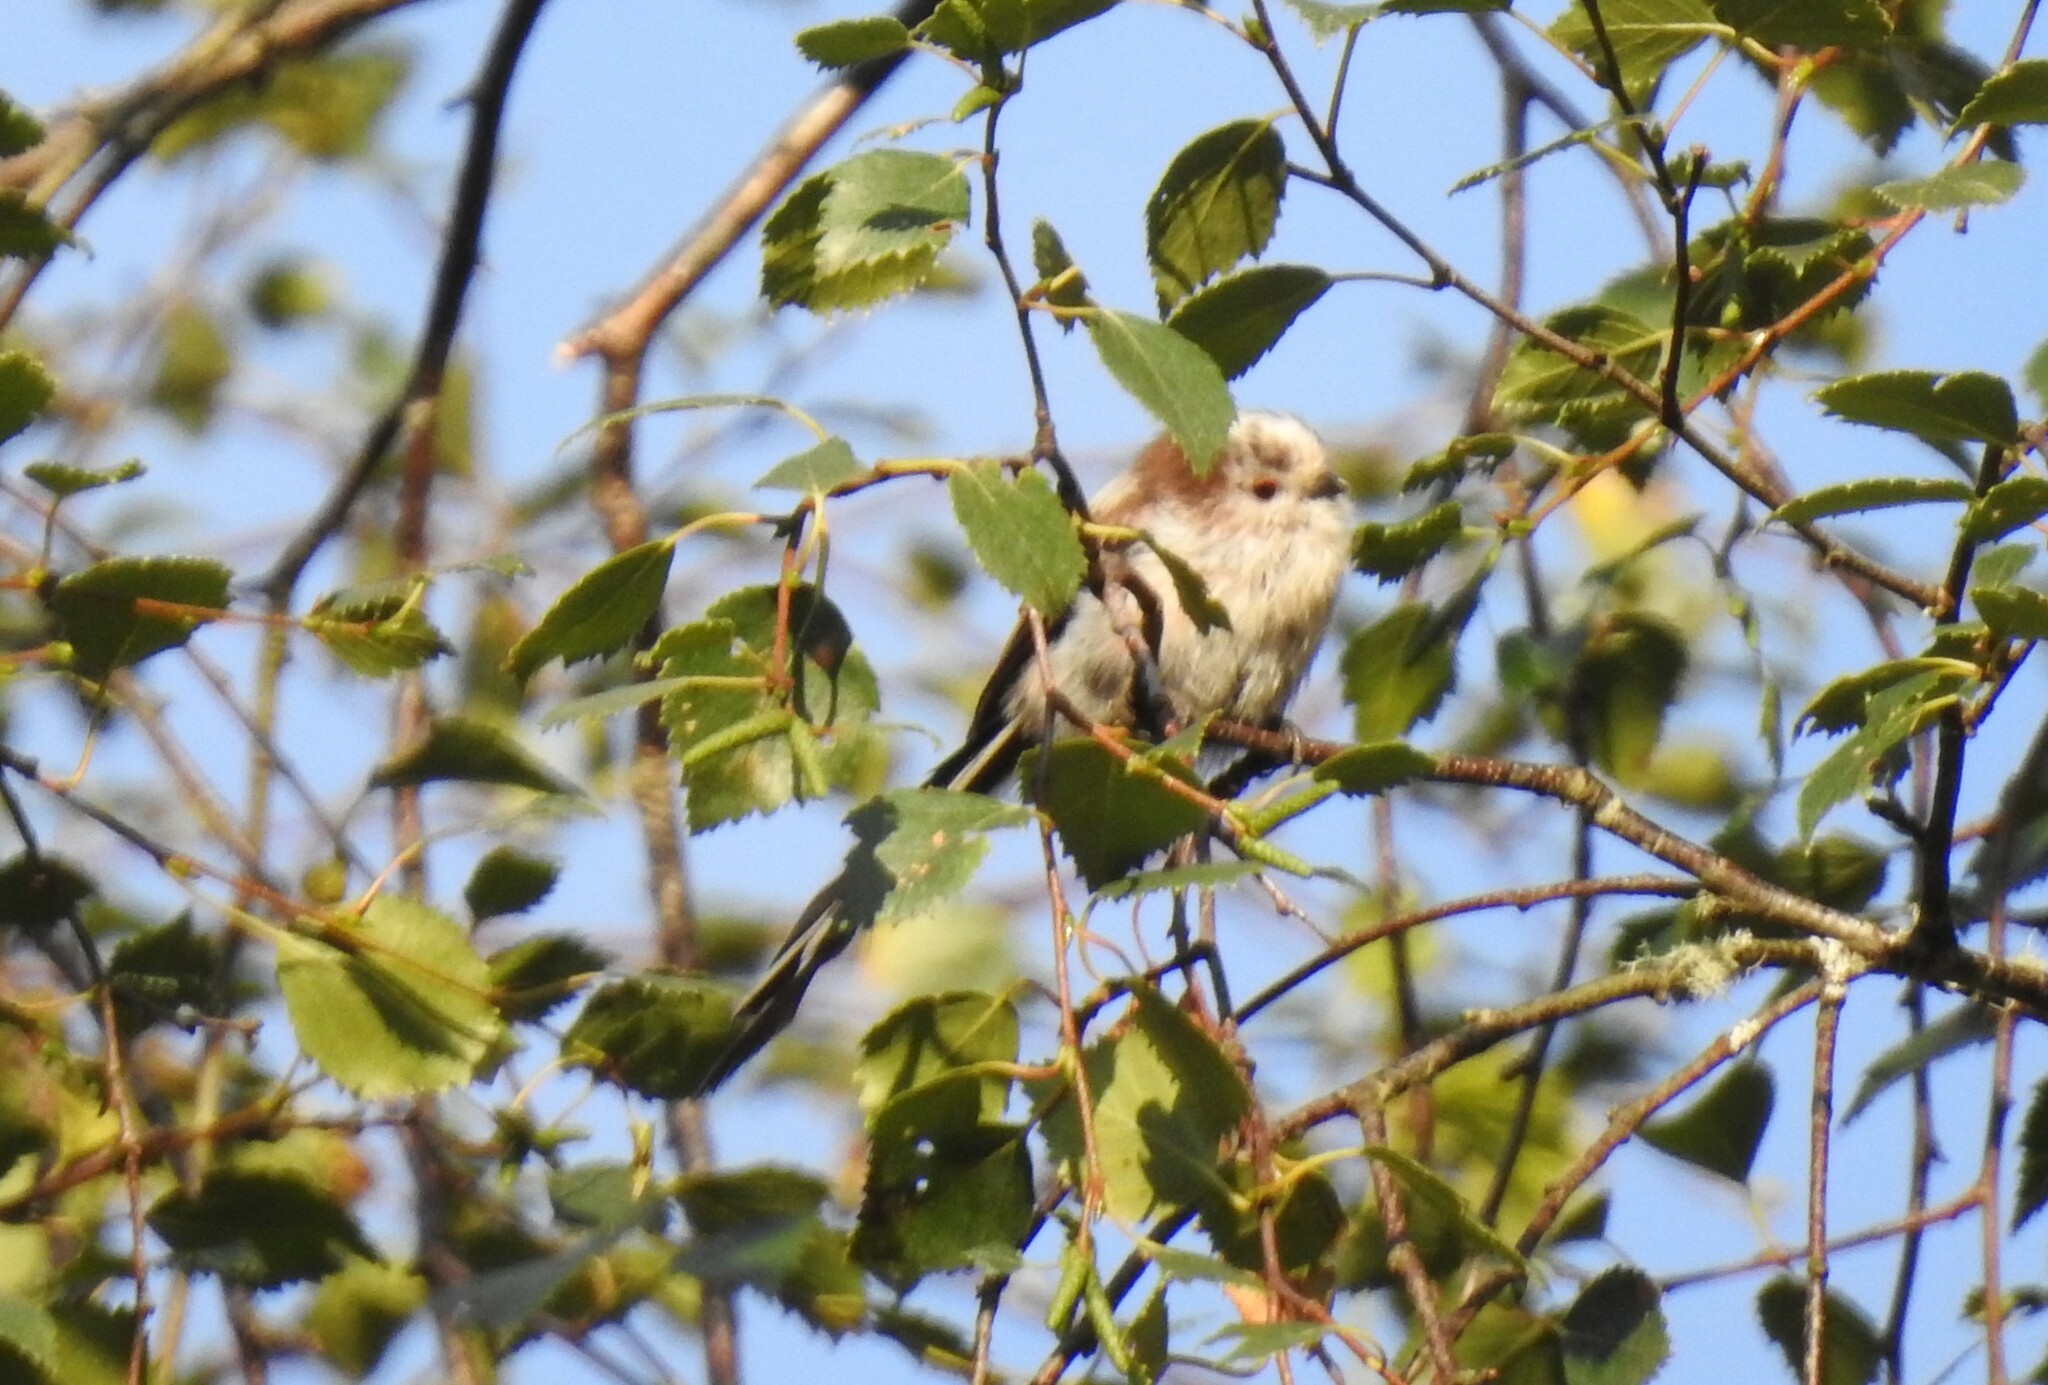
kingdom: Animalia
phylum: Chordata
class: Aves
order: Passeriformes
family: Aegithalidae
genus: Aegithalos
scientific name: Aegithalos caudatus
